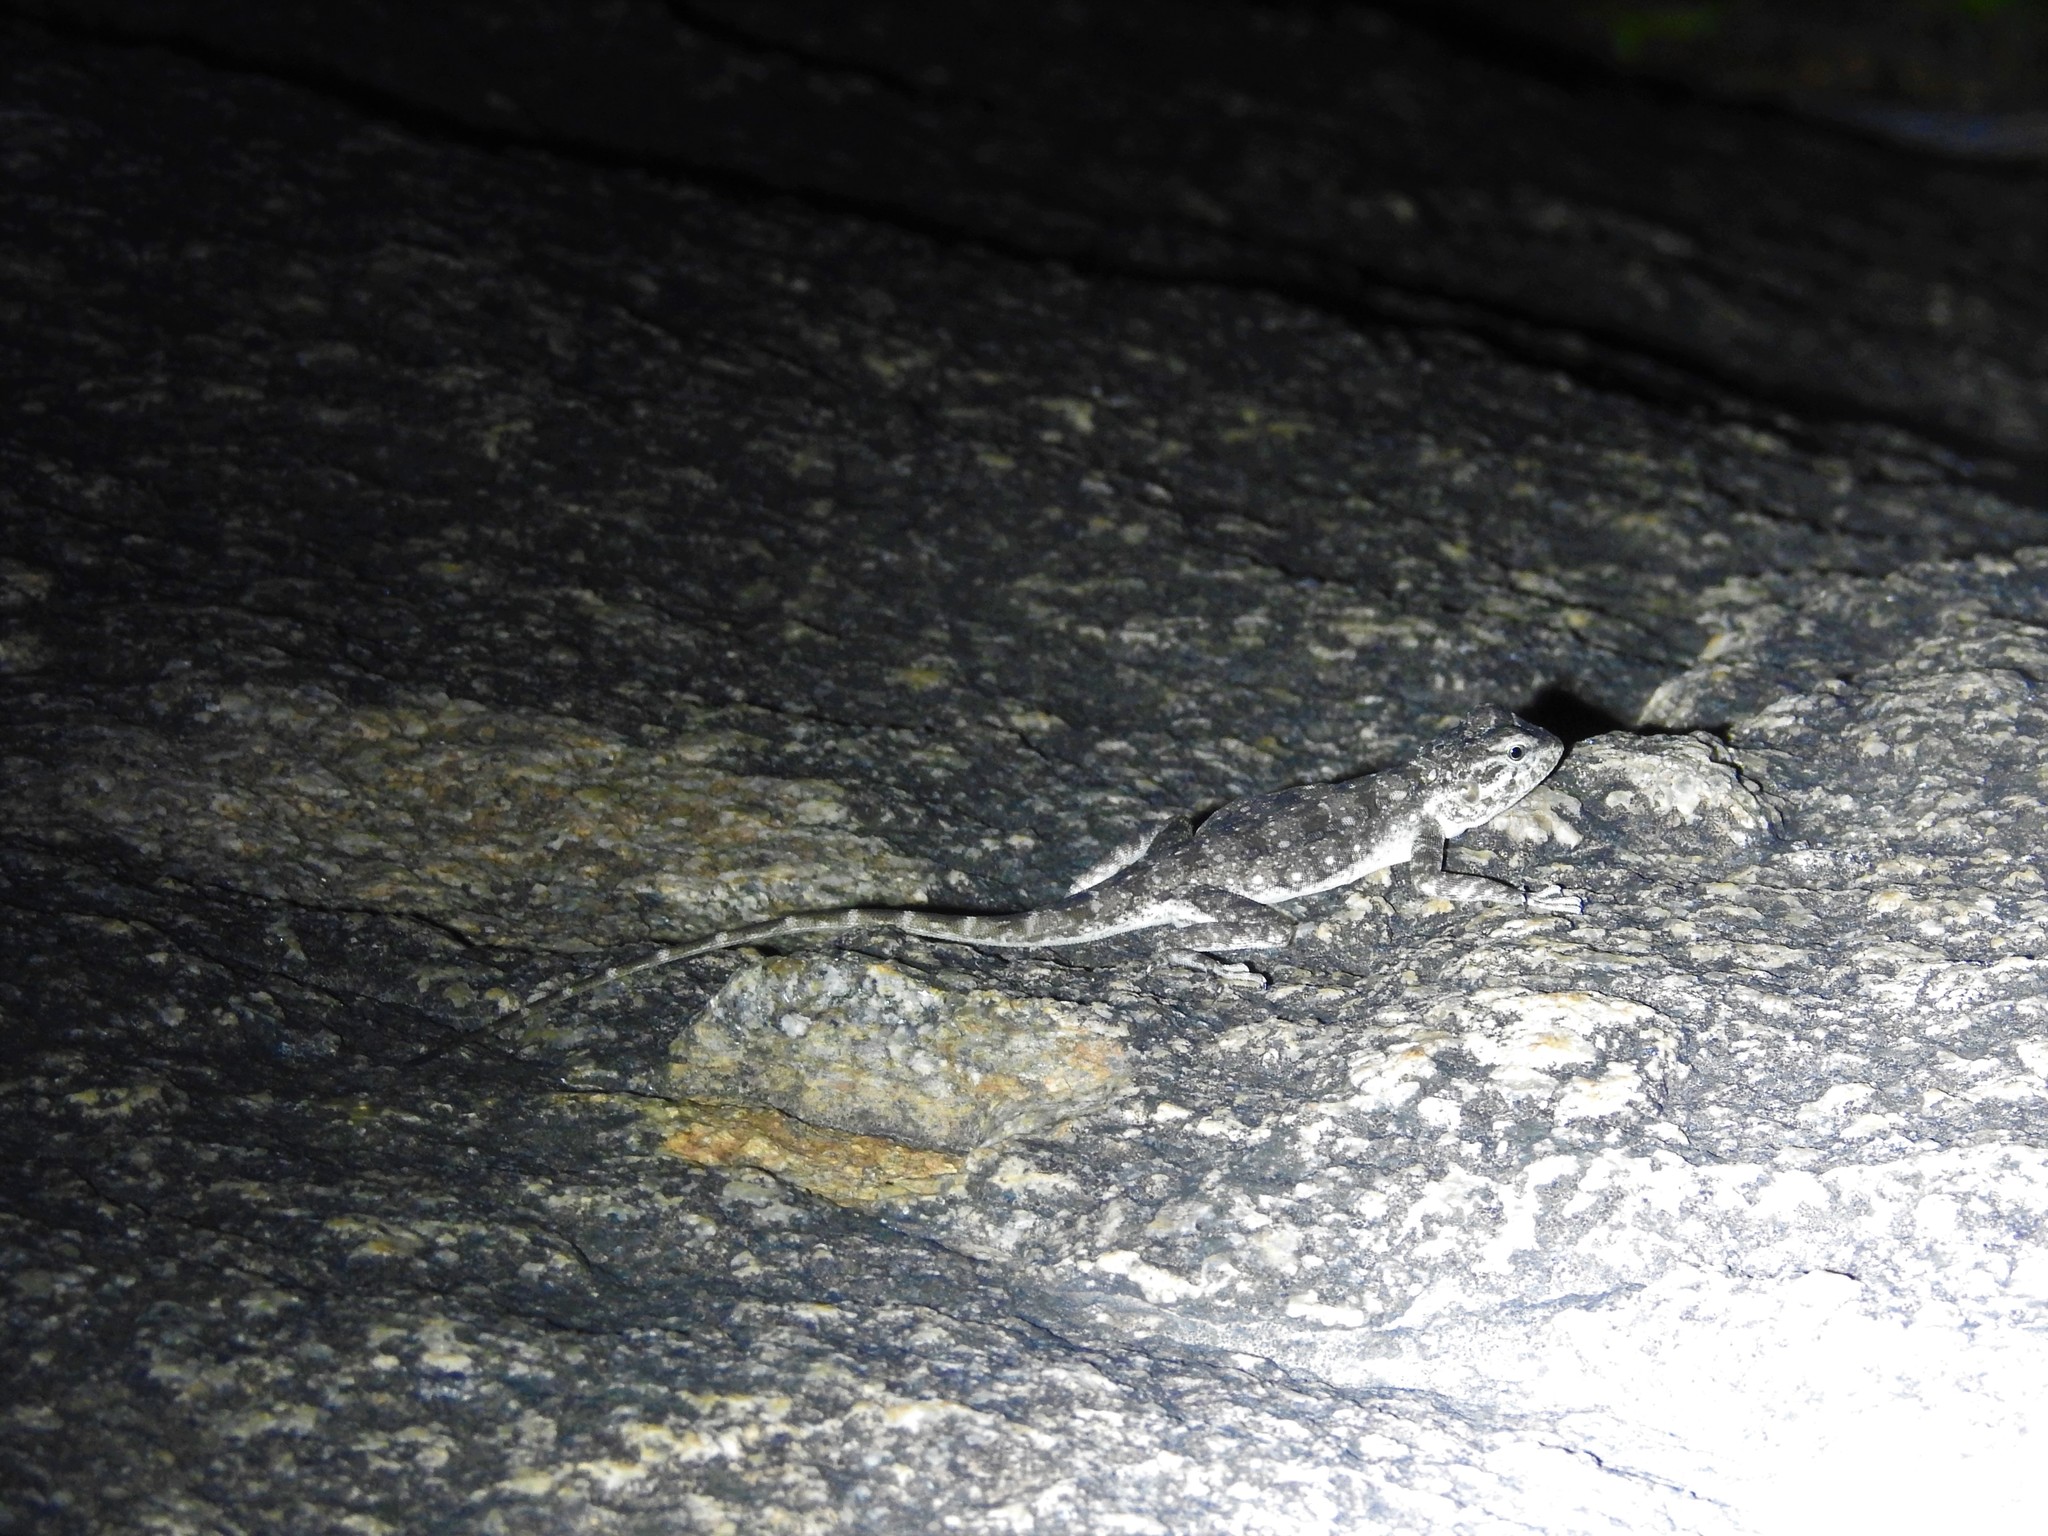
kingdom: Animalia
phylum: Chordata
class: Squamata
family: Agamidae
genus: Psammophilus
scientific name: Psammophilus dorsalis
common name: South indian rock agama
